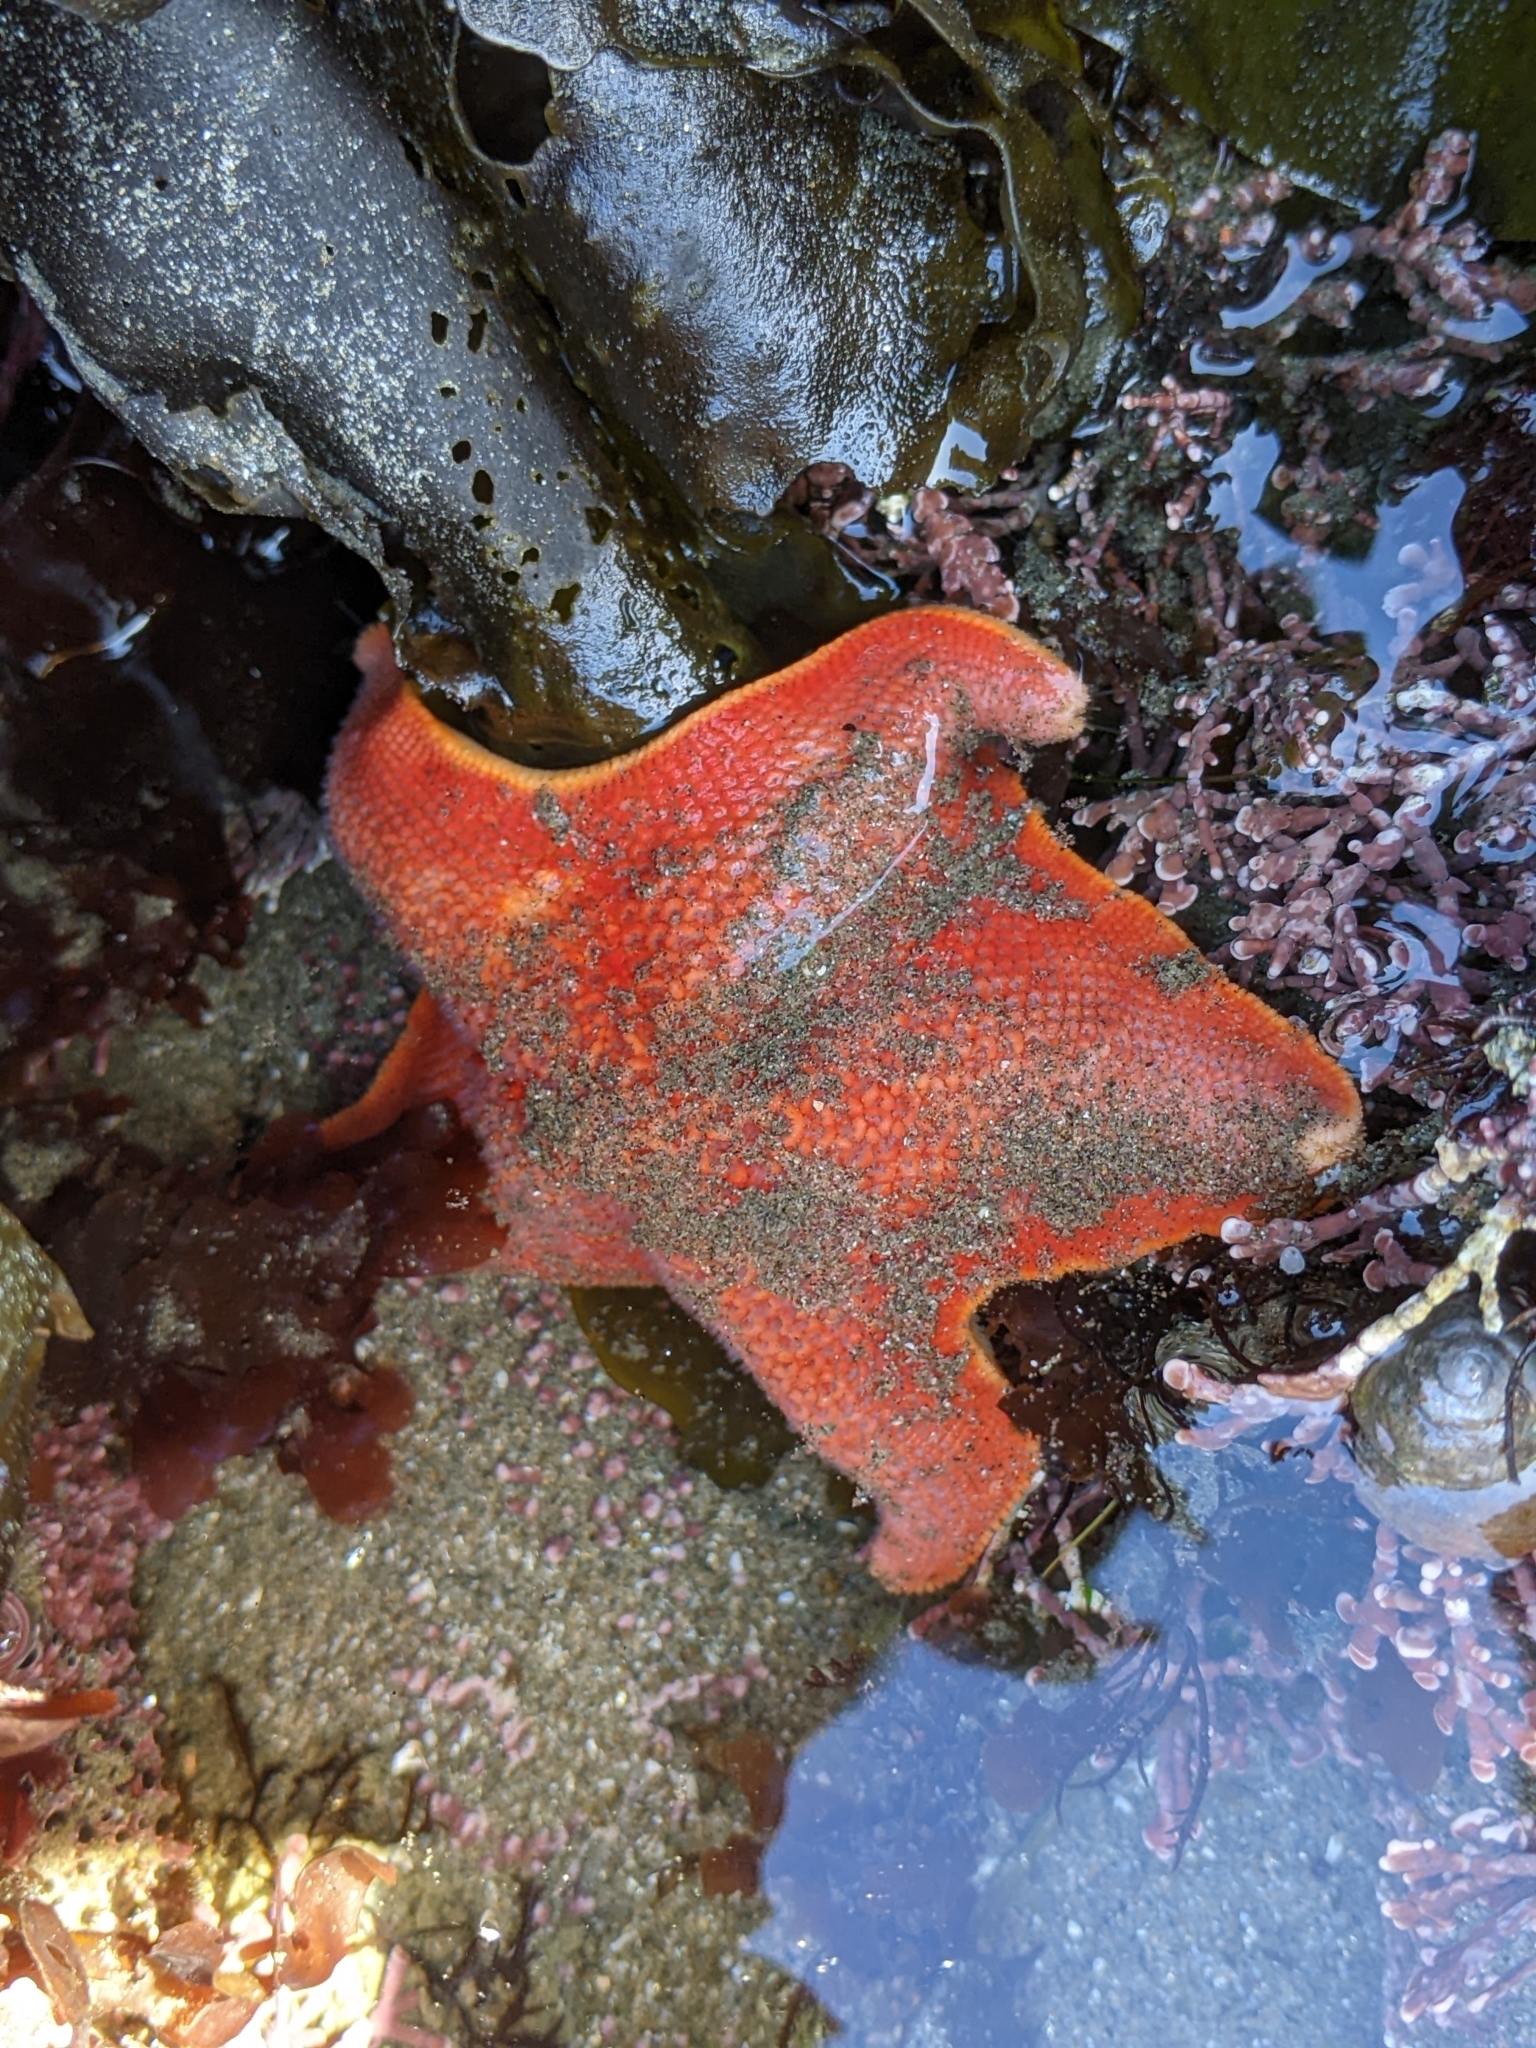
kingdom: Animalia
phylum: Echinodermata
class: Asteroidea
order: Valvatida
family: Asterinidae
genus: Patiria
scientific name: Patiria miniata
